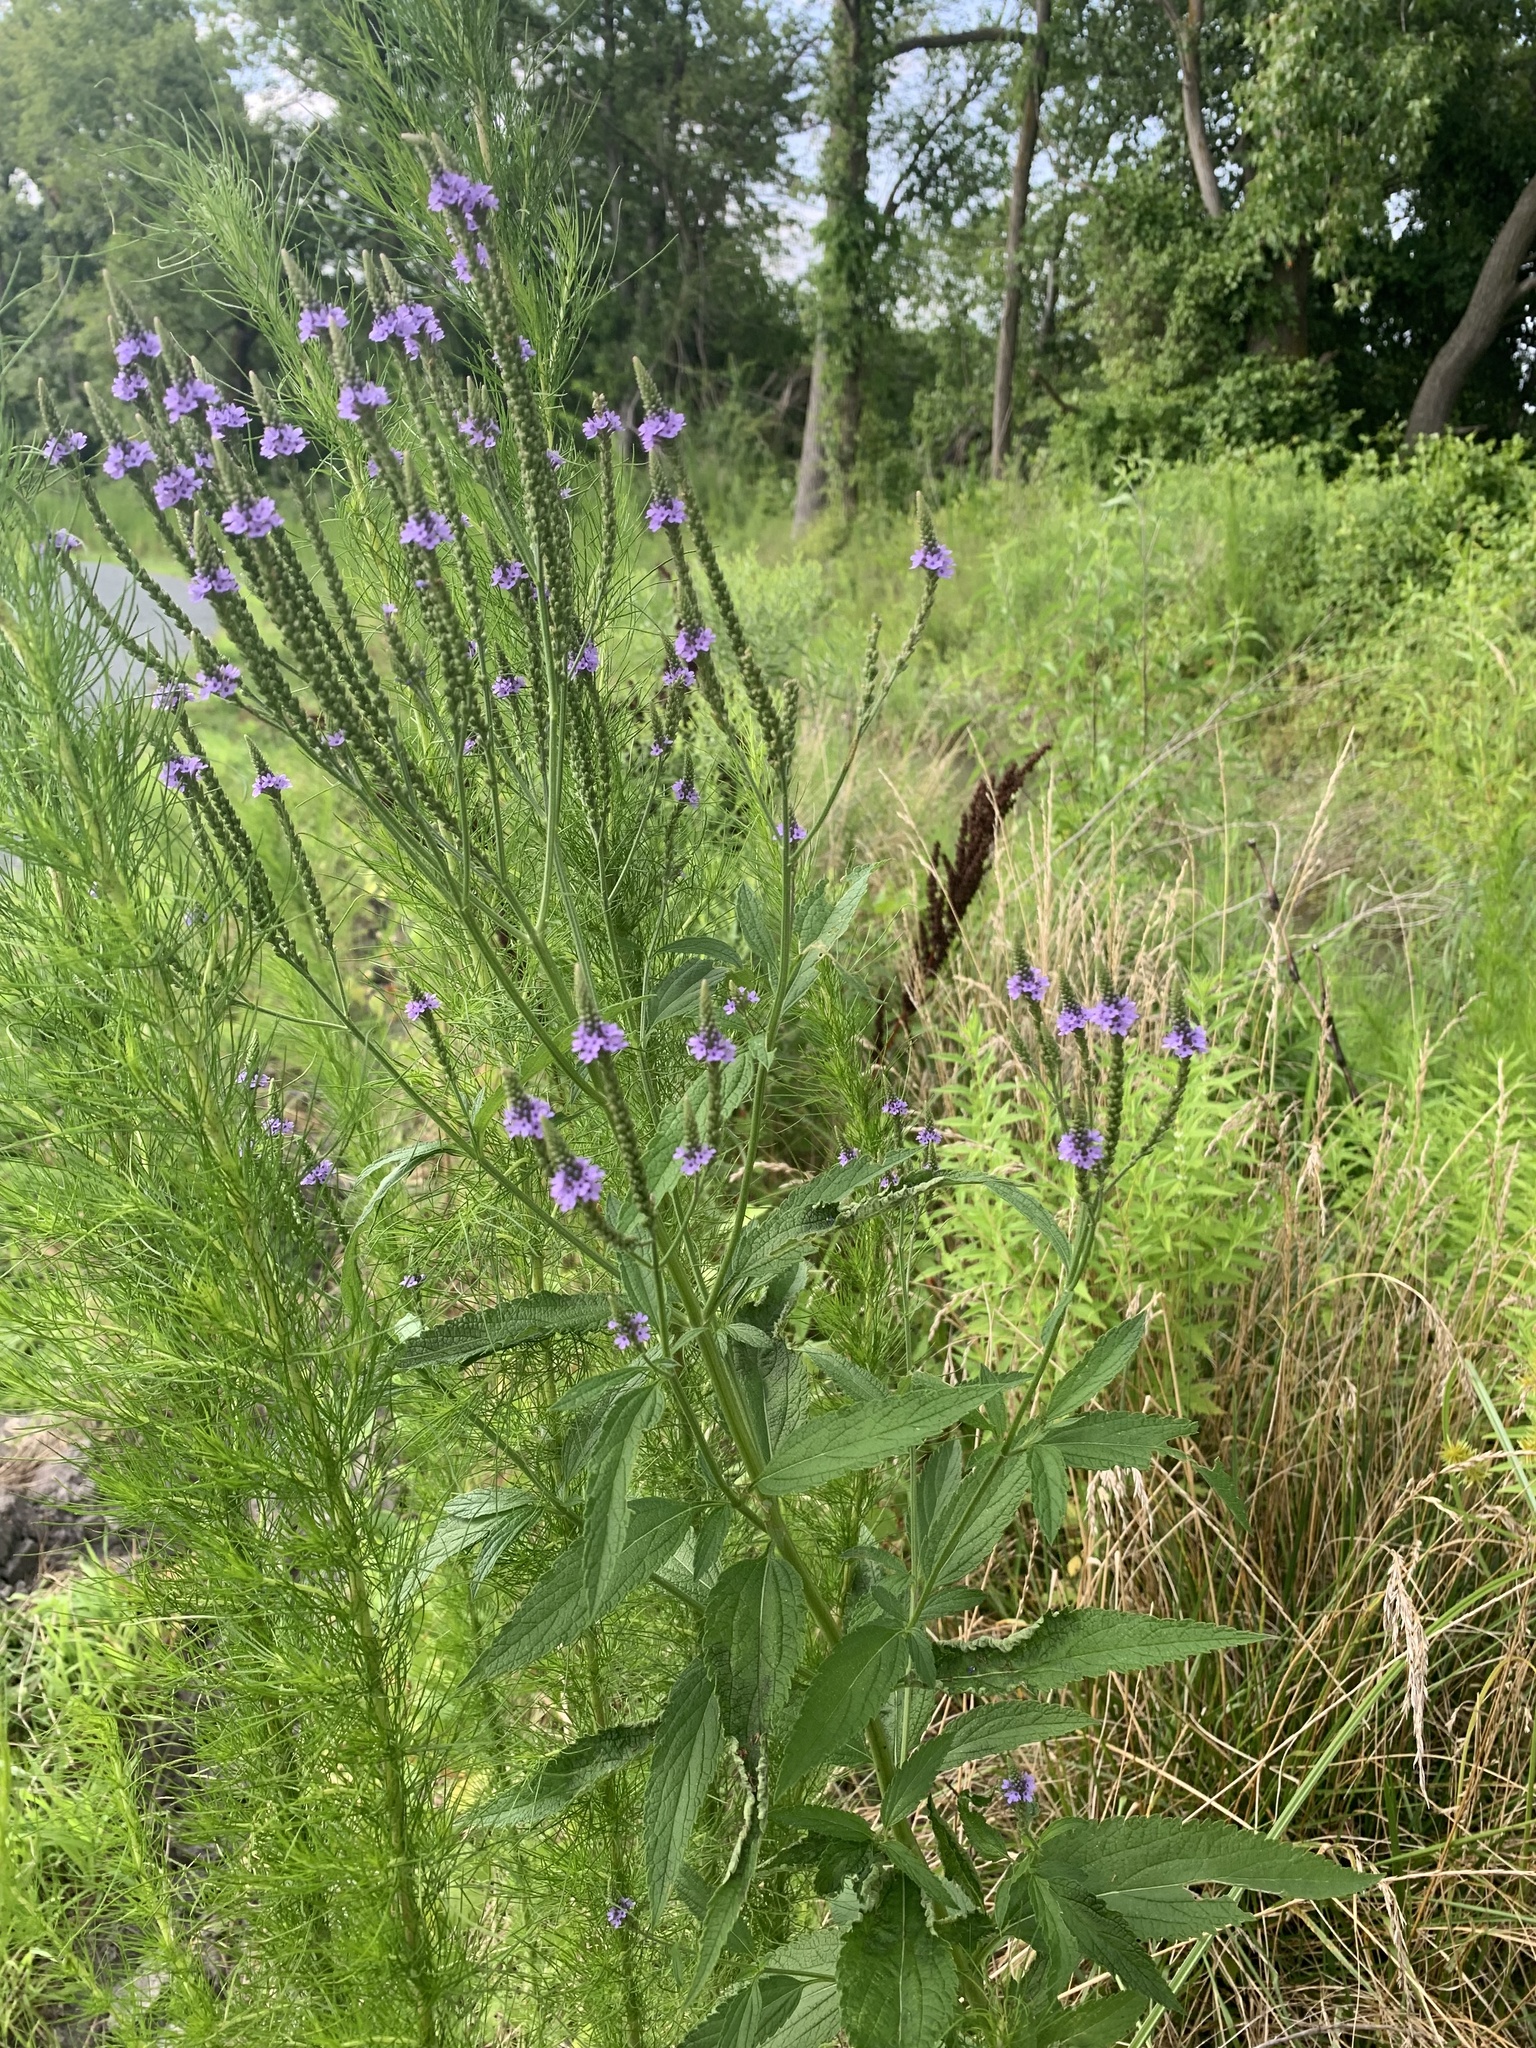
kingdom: Plantae
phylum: Tracheophyta
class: Magnoliopsida
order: Lamiales
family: Verbenaceae
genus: Verbena
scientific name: Verbena hastata
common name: American blue vervain
